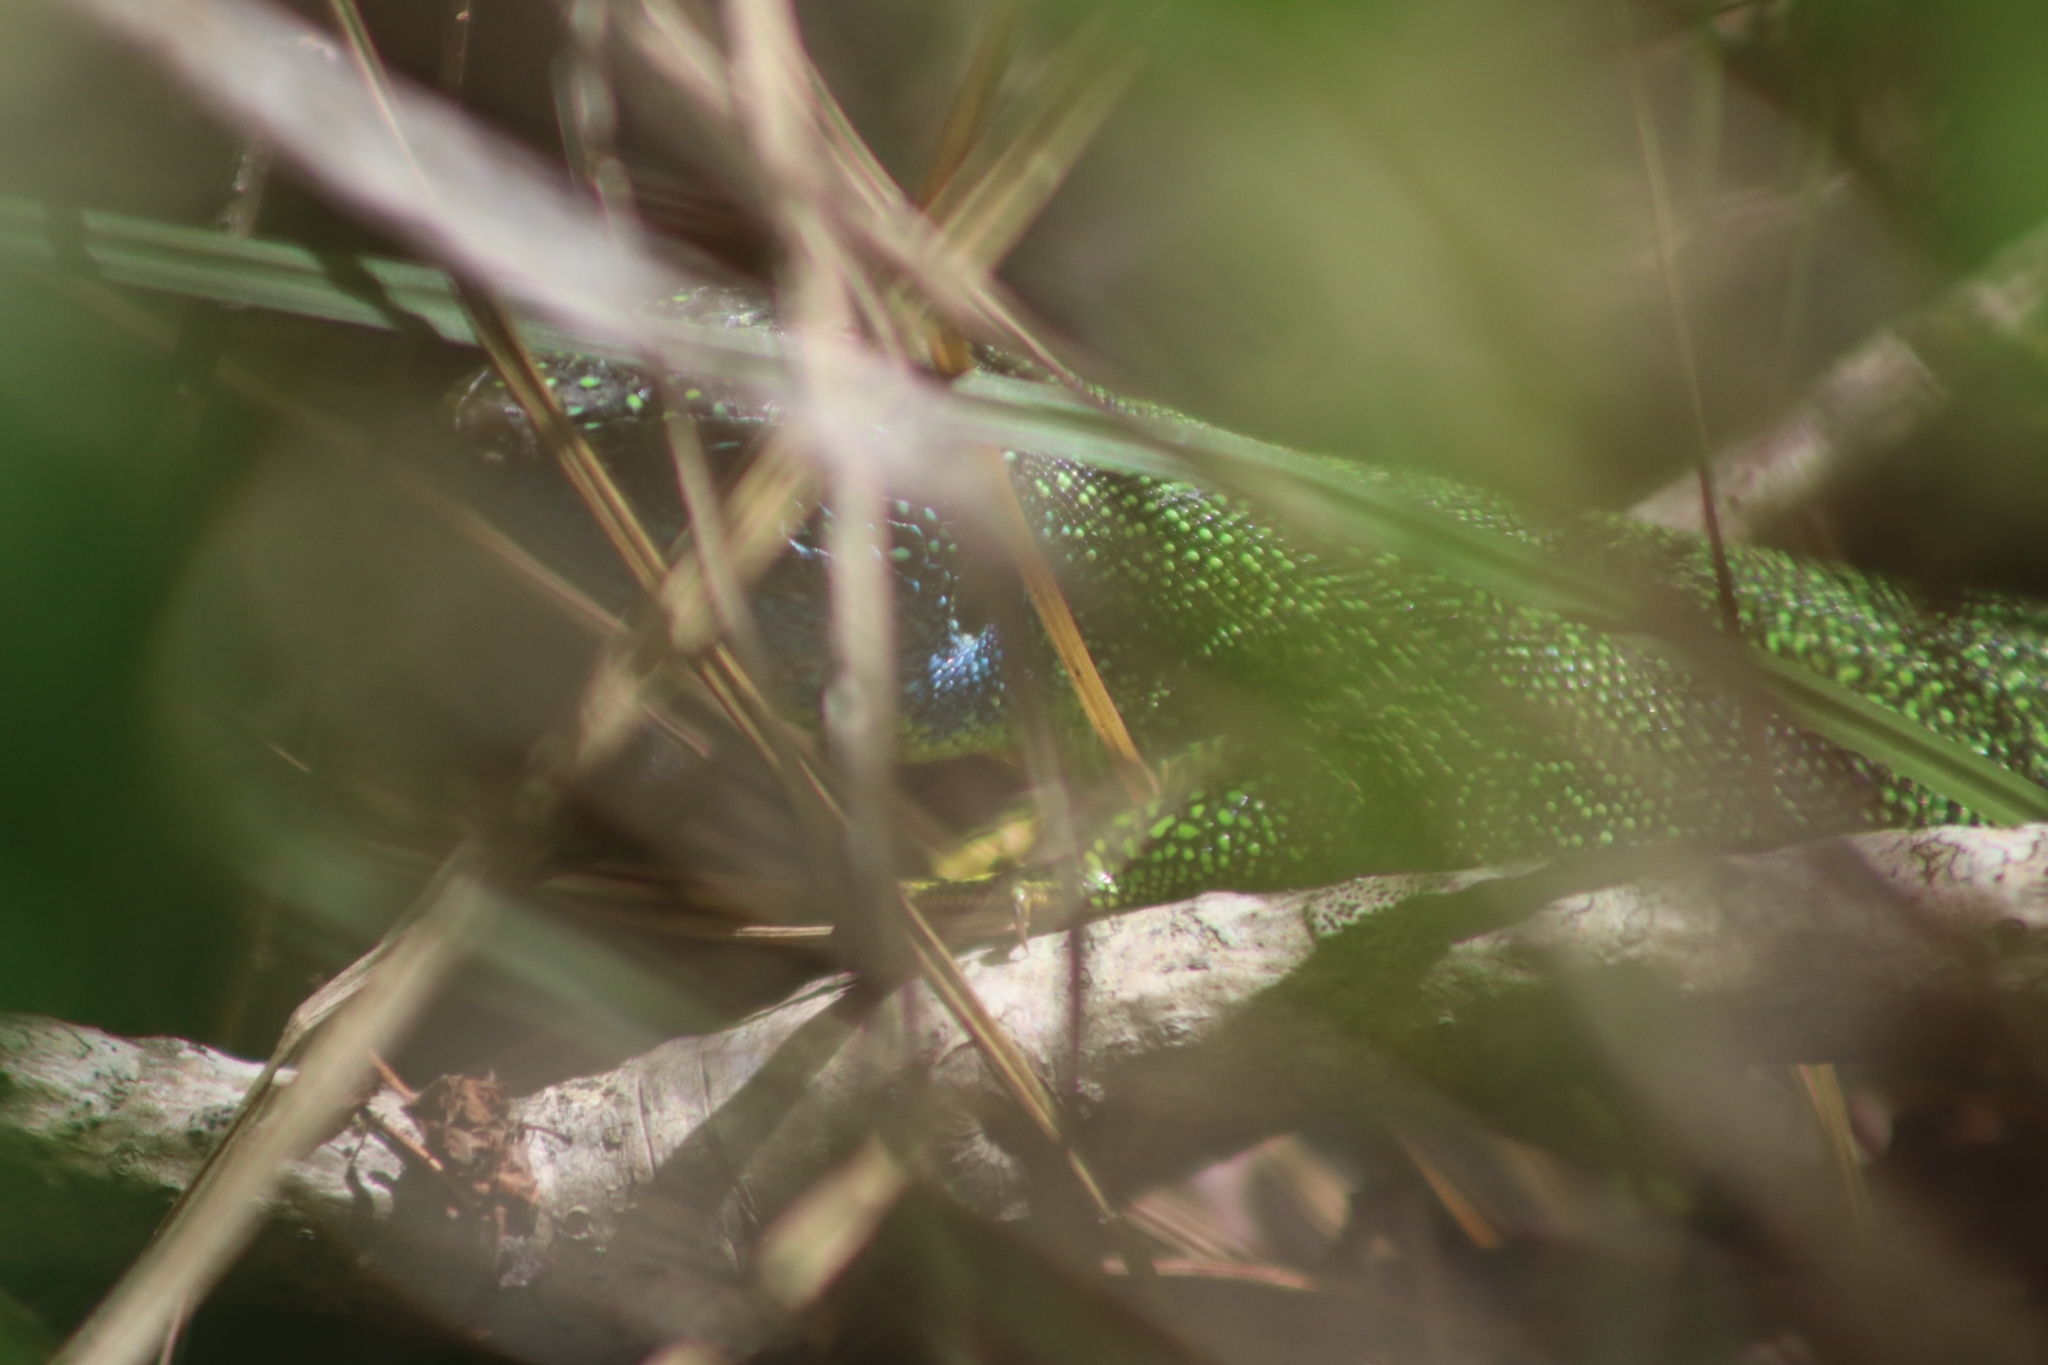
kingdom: Animalia
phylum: Chordata
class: Squamata
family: Lacertidae
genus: Lacerta
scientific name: Lacerta bilineata
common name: Western green lizard
